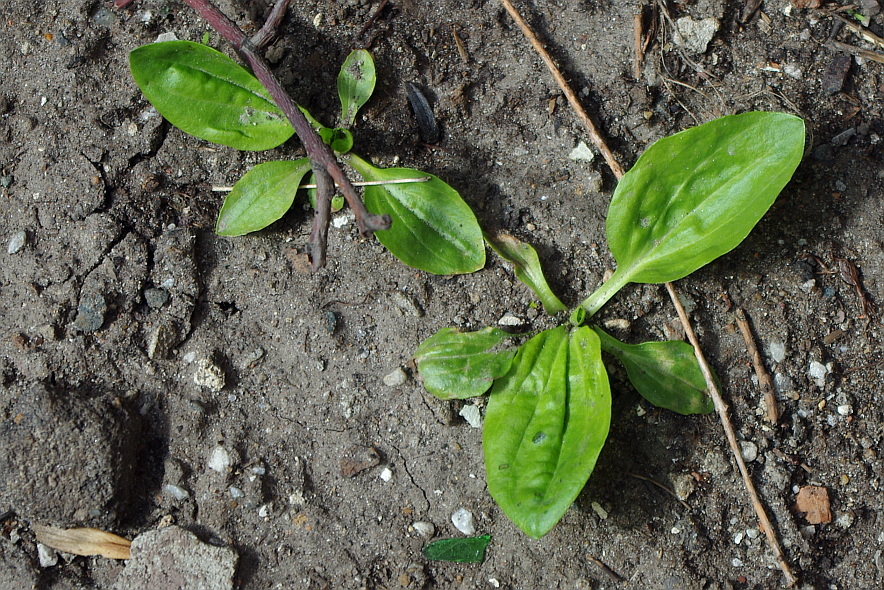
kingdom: Plantae
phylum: Tracheophyta
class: Magnoliopsida
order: Lamiales
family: Plantaginaceae
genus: Plantago
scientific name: Plantago major
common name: Common plantain
